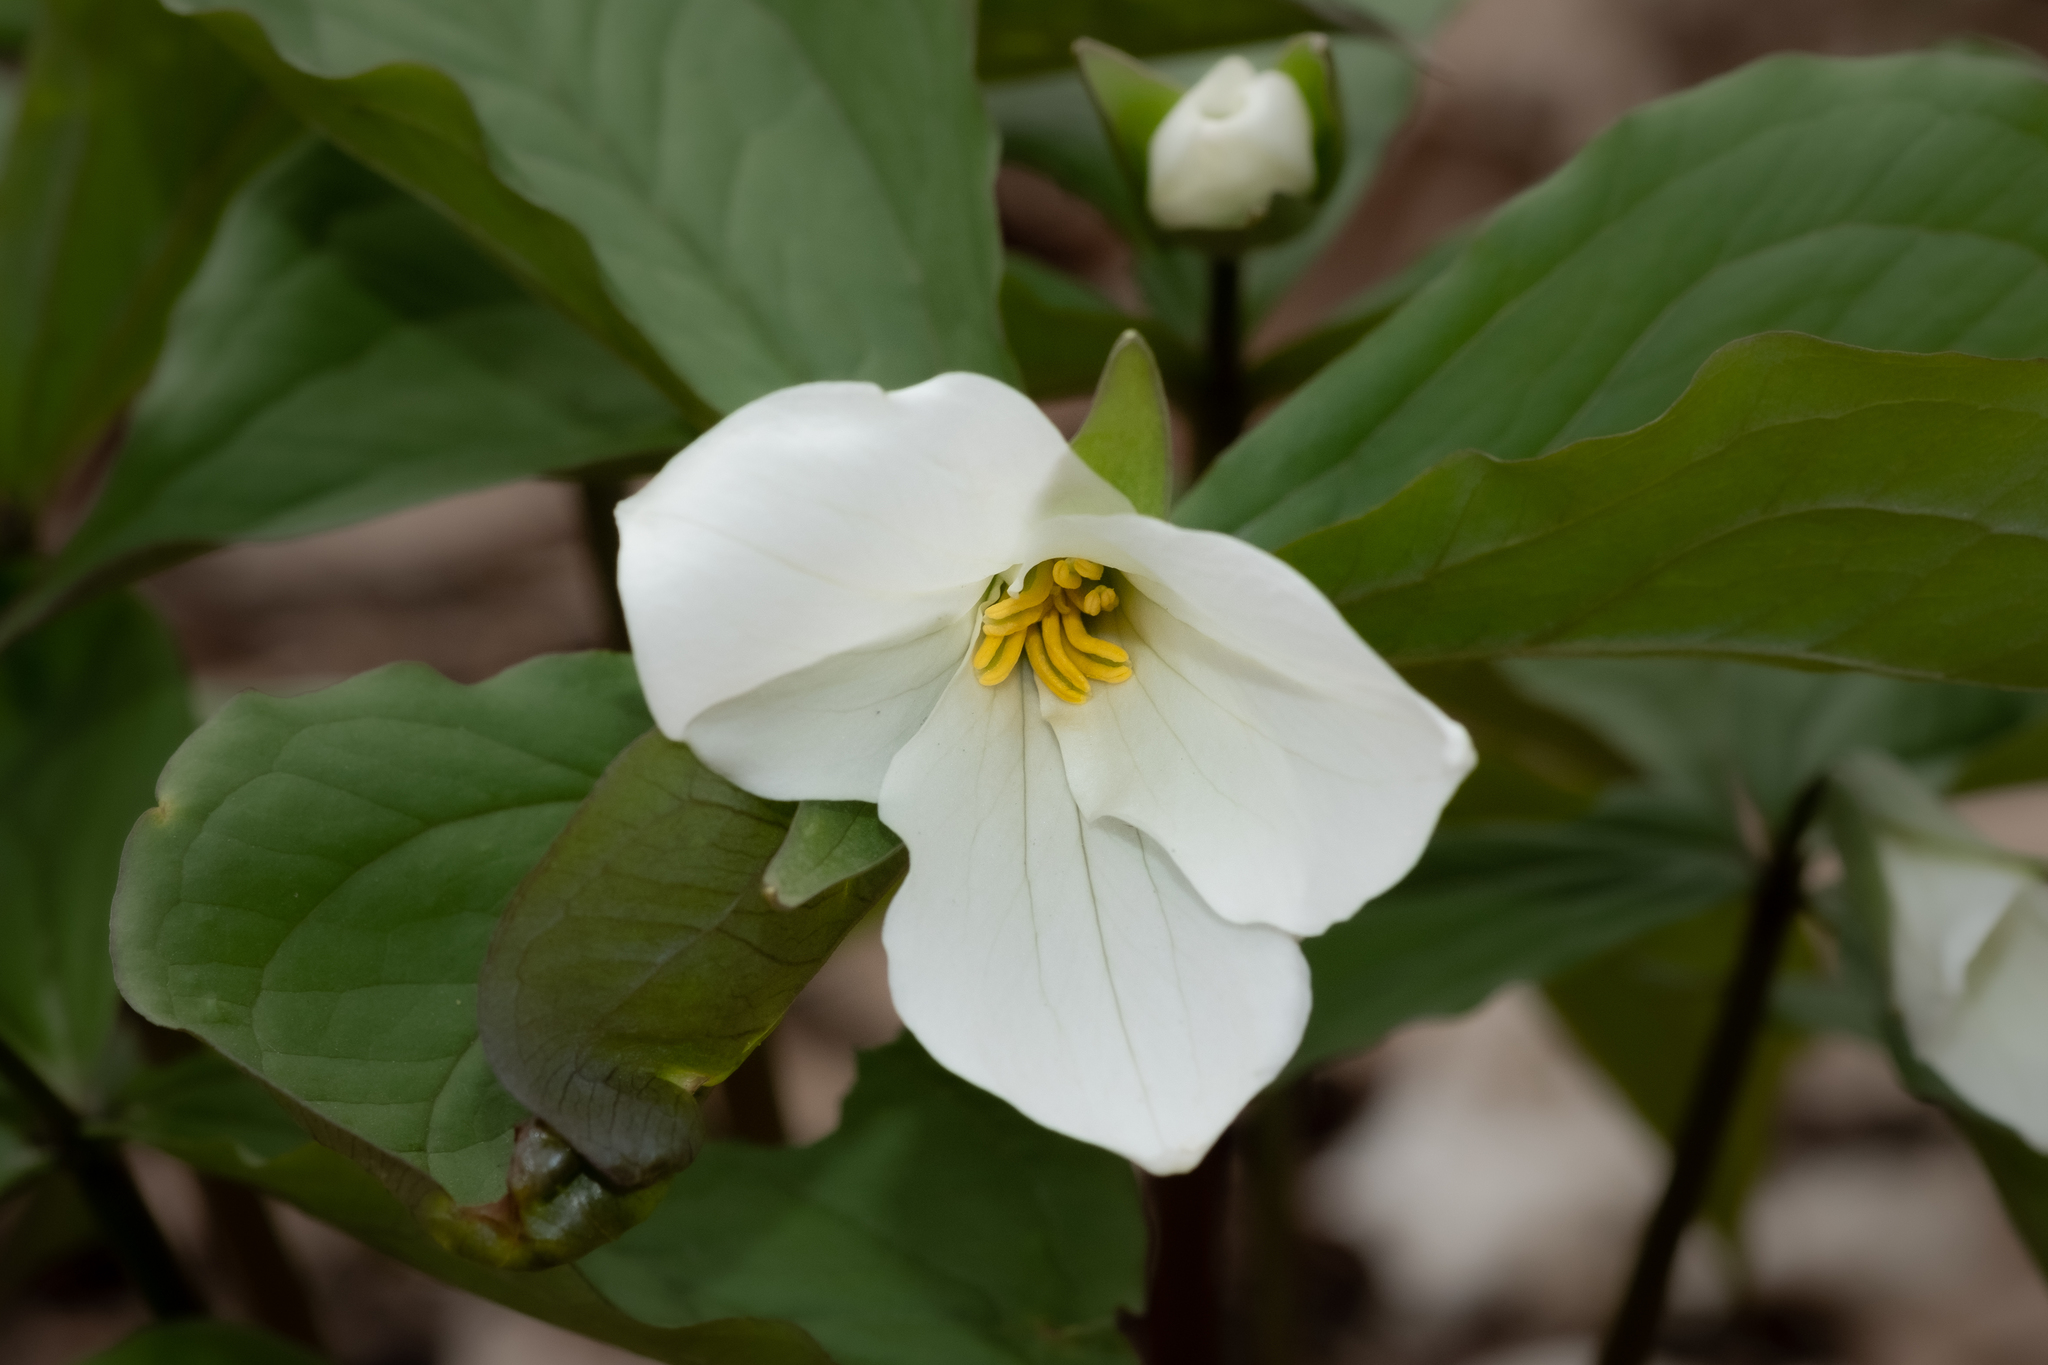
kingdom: Plantae
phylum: Tracheophyta
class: Liliopsida
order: Liliales
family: Melanthiaceae
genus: Trillium
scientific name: Trillium grandiflorum
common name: Great white trillium
